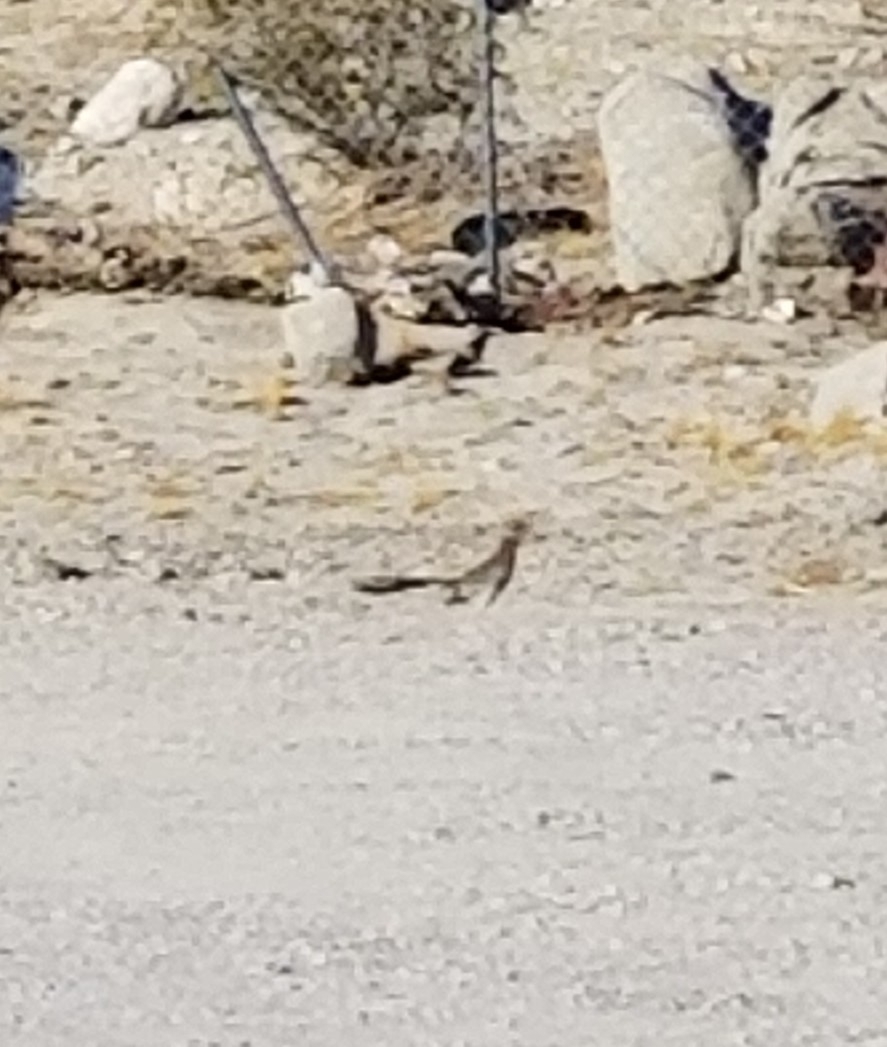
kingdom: Animalia
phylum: Chordata
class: Aves
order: Cuculiformes
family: Cuculidae
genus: Geococcyx
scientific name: Geococcyx californianus
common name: Greater roadrunner
